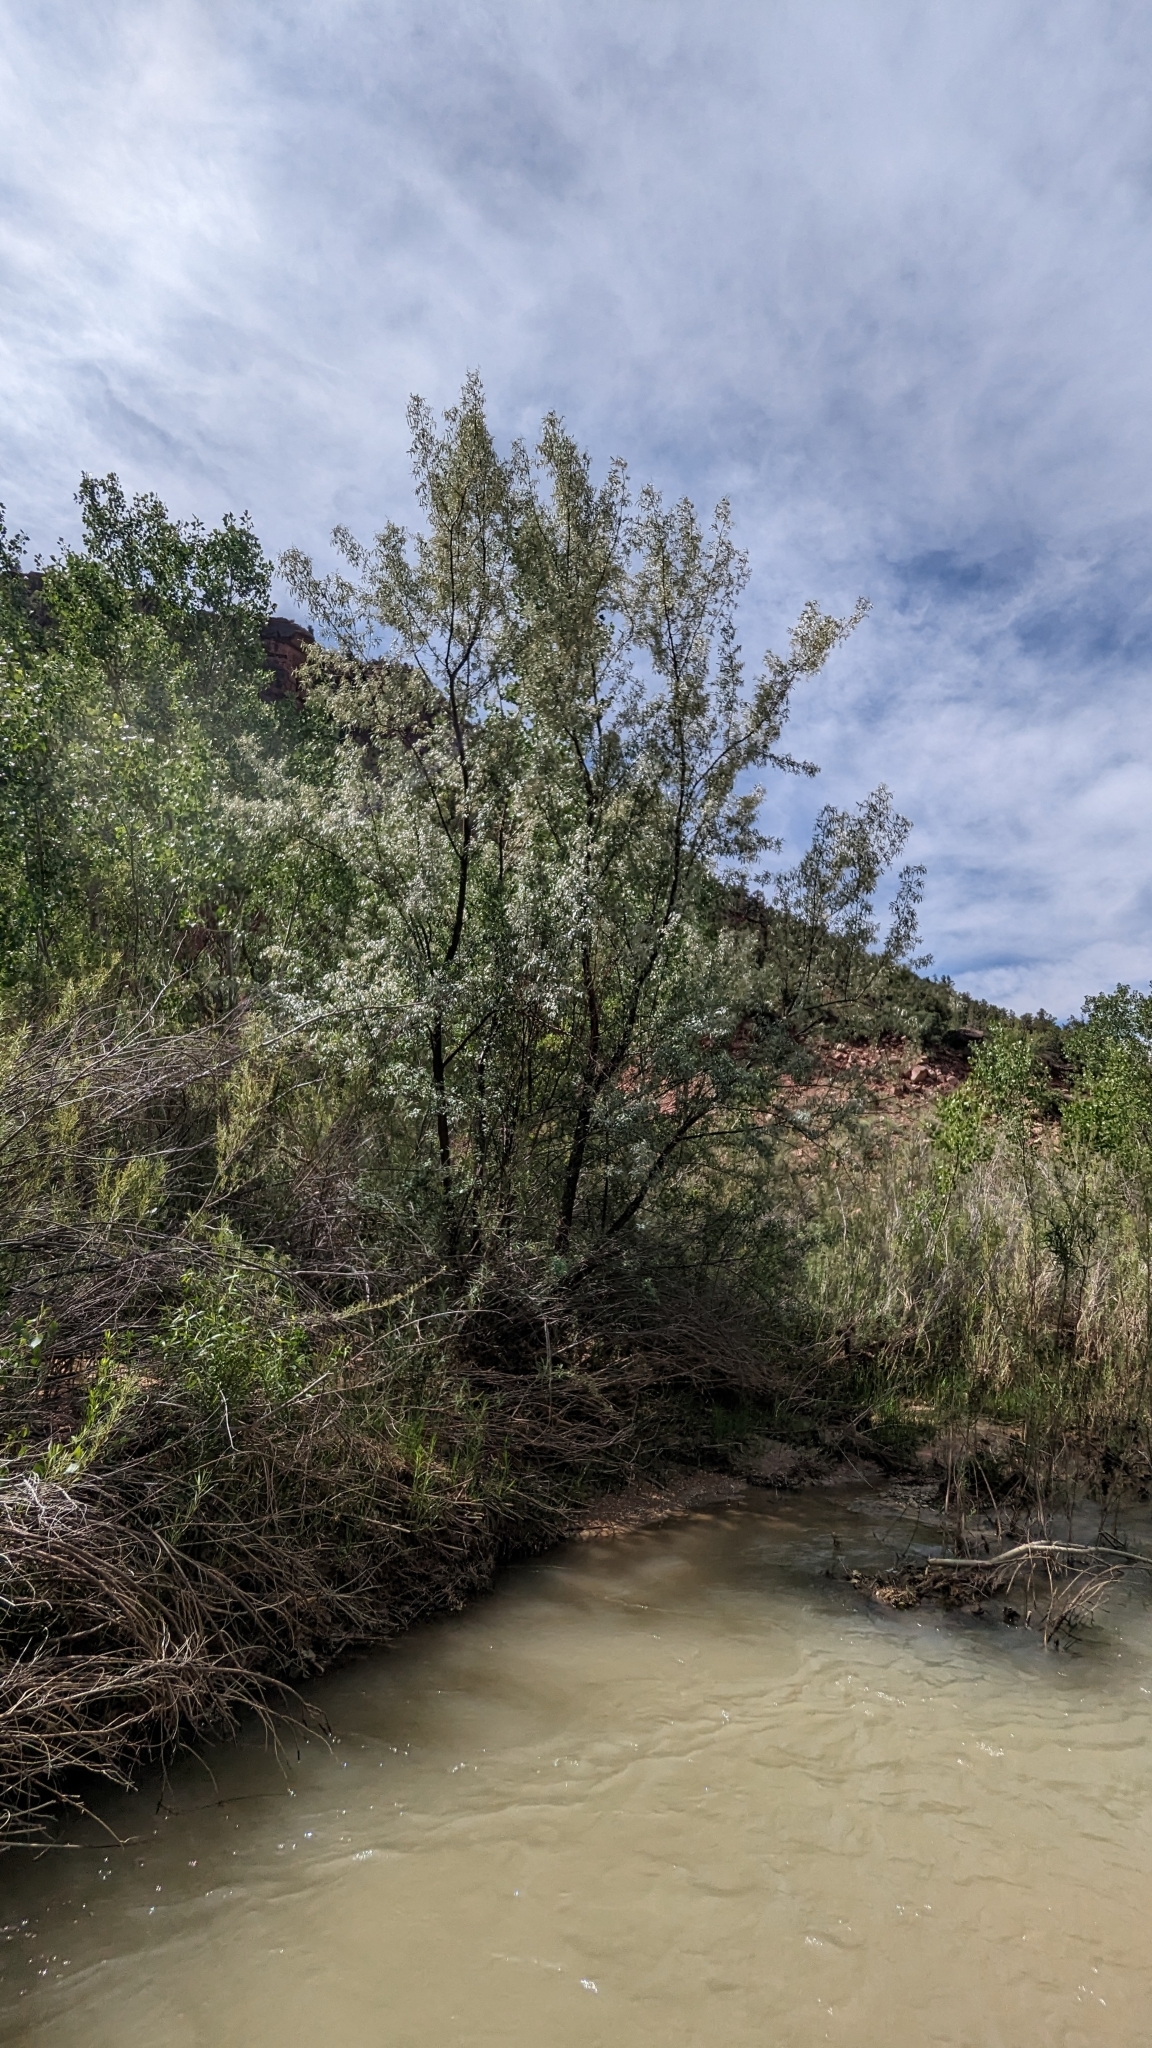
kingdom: Plantae
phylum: Tracheophyta
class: Magnoliopsida
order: Rosales
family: Elaeagnaceae
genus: Elaeagnus
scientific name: Elaeagnus angustifolia
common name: Russian olive
